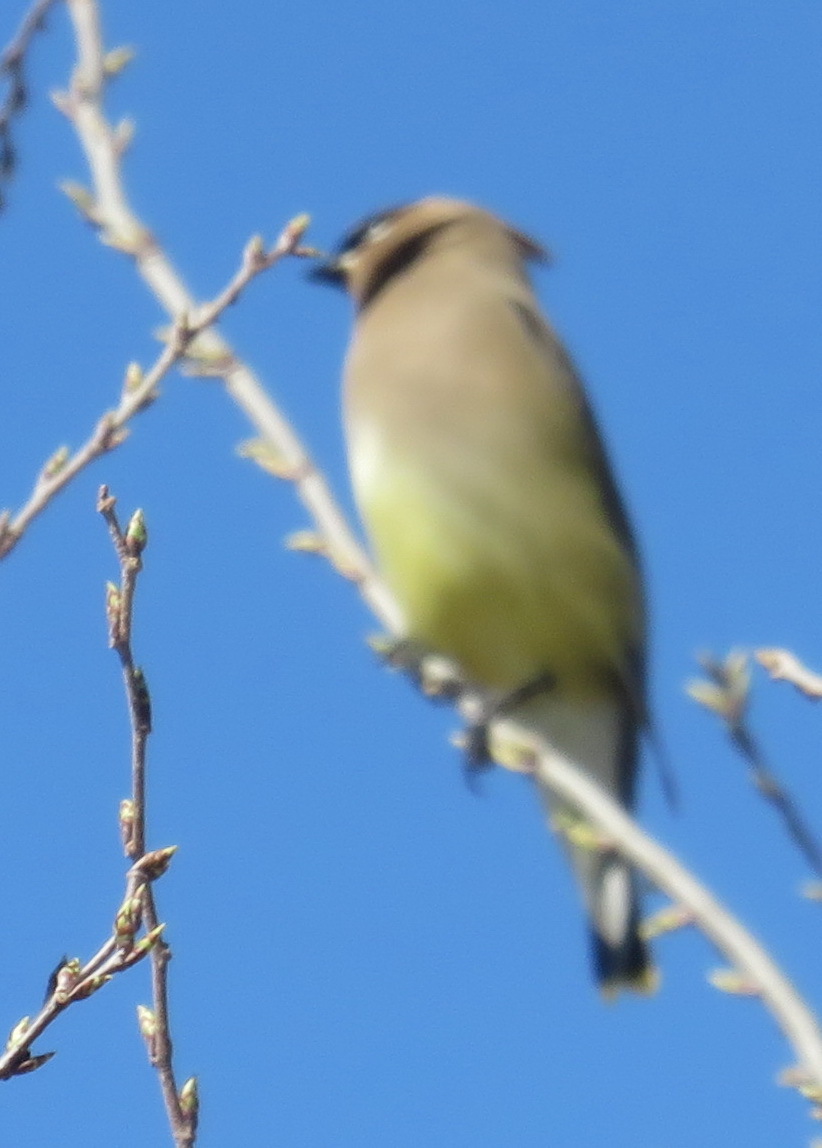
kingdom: Animalia
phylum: Chordata
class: Aves
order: Passeriformes
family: Bombycillidae
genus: Bombycilla
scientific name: Bombycilla cedrorum
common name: Cedar waxwing
